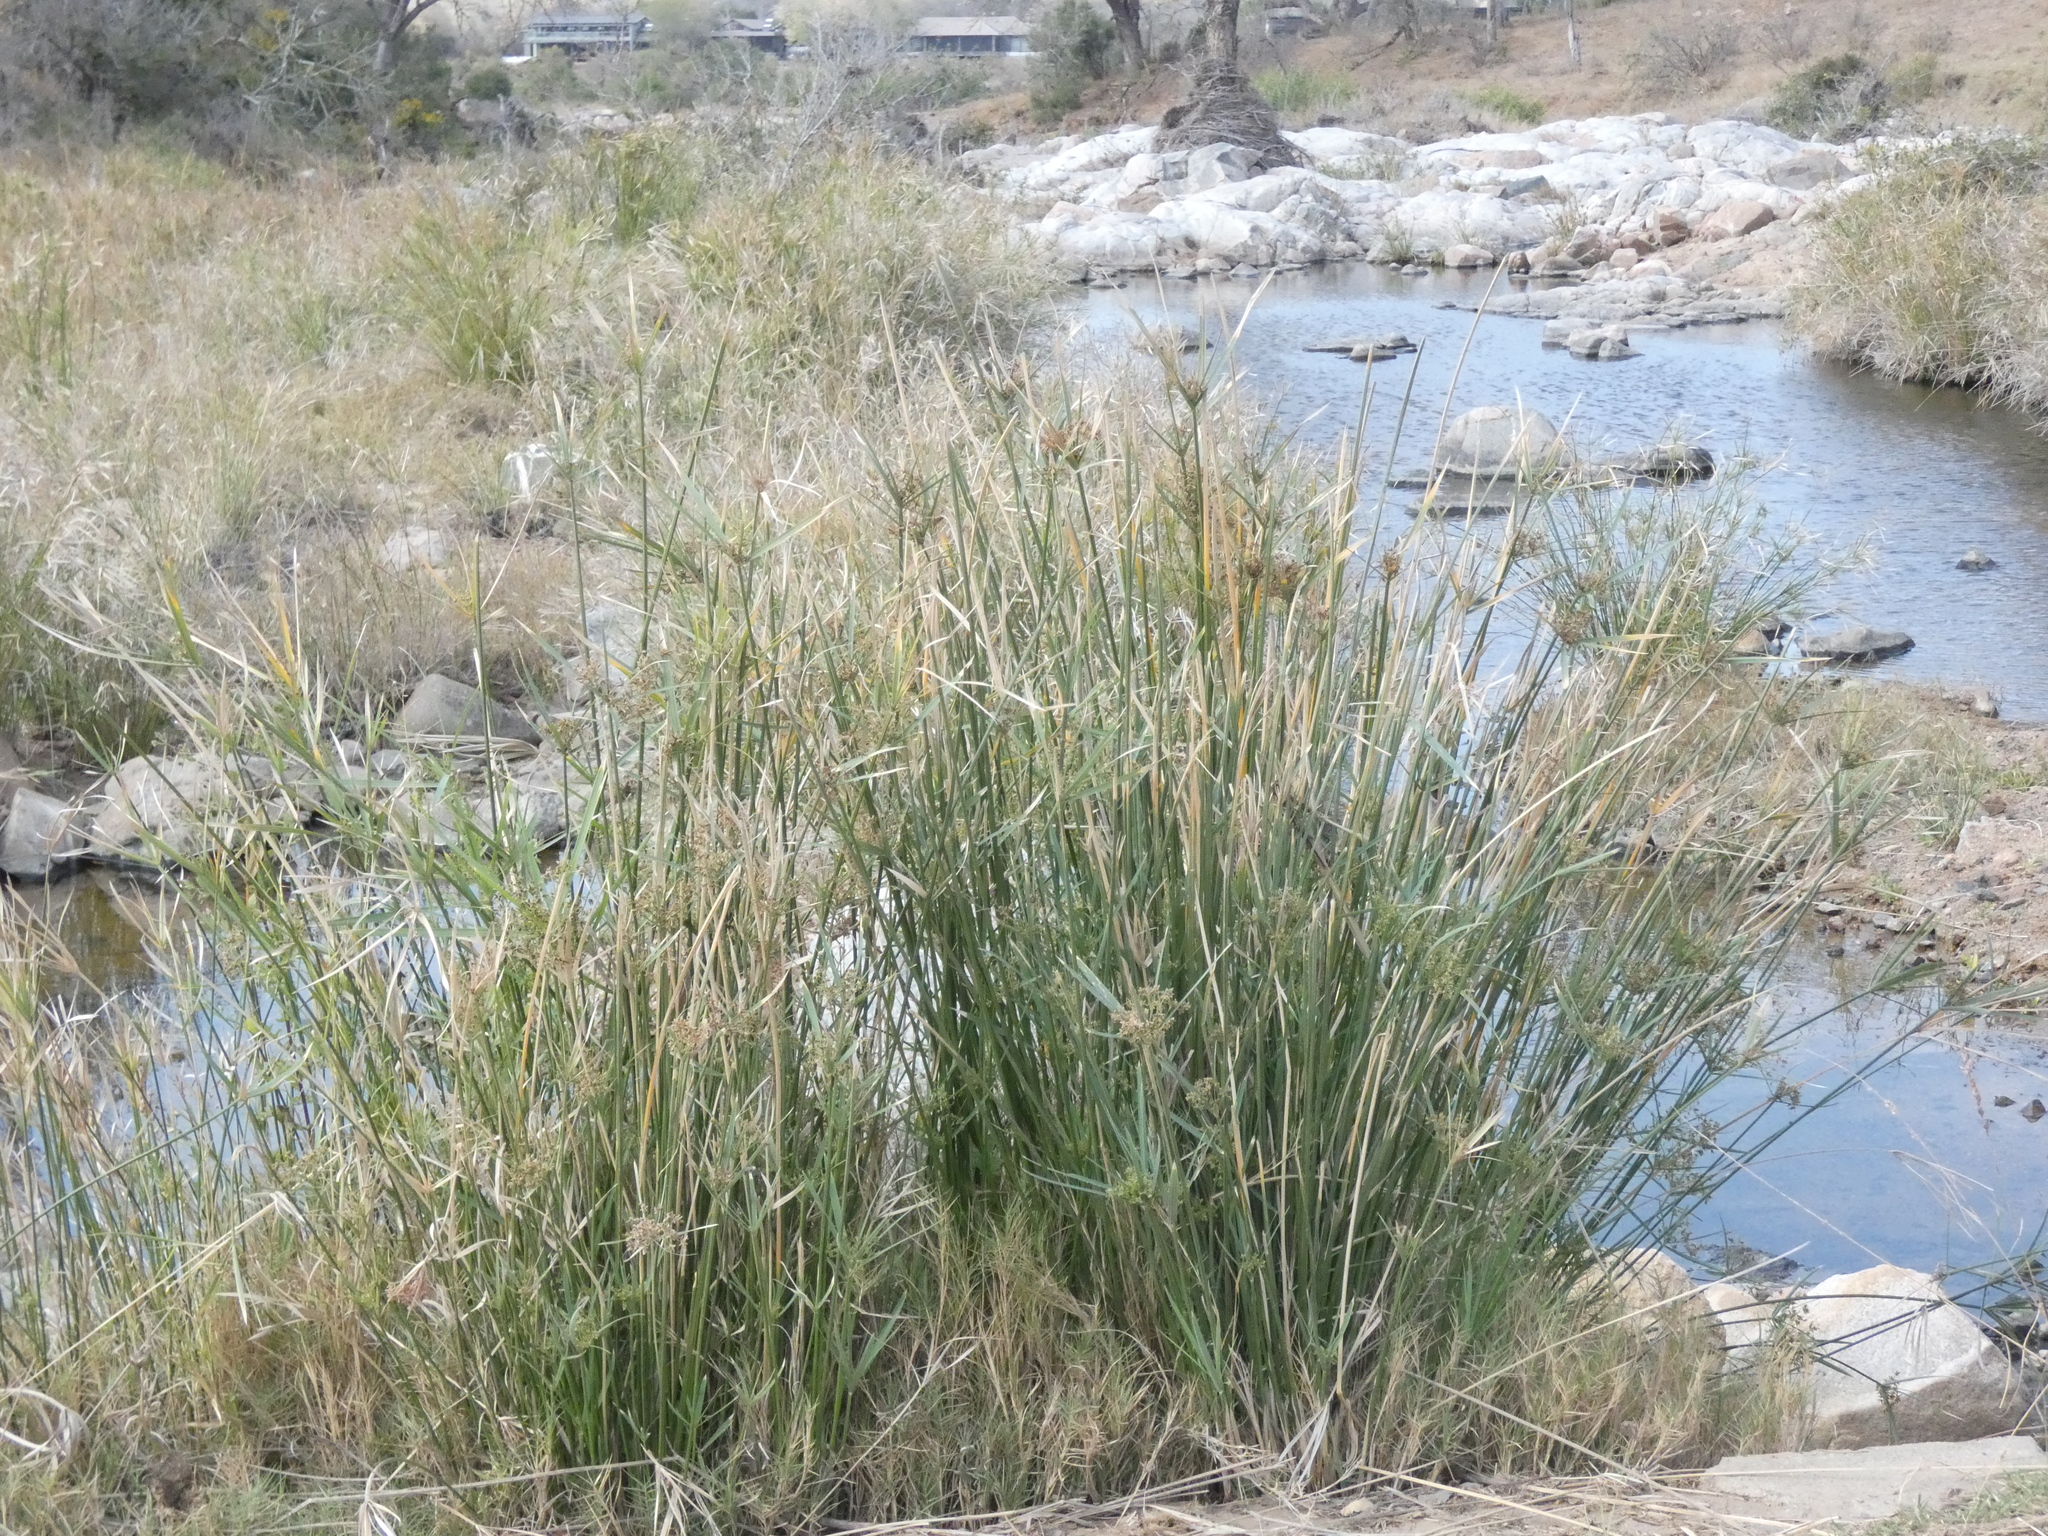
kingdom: Plantae
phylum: Tracheophyta
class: Liliopsida
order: Poales
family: Cyperaceae
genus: Cyperus
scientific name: Cyperus sexangularis
